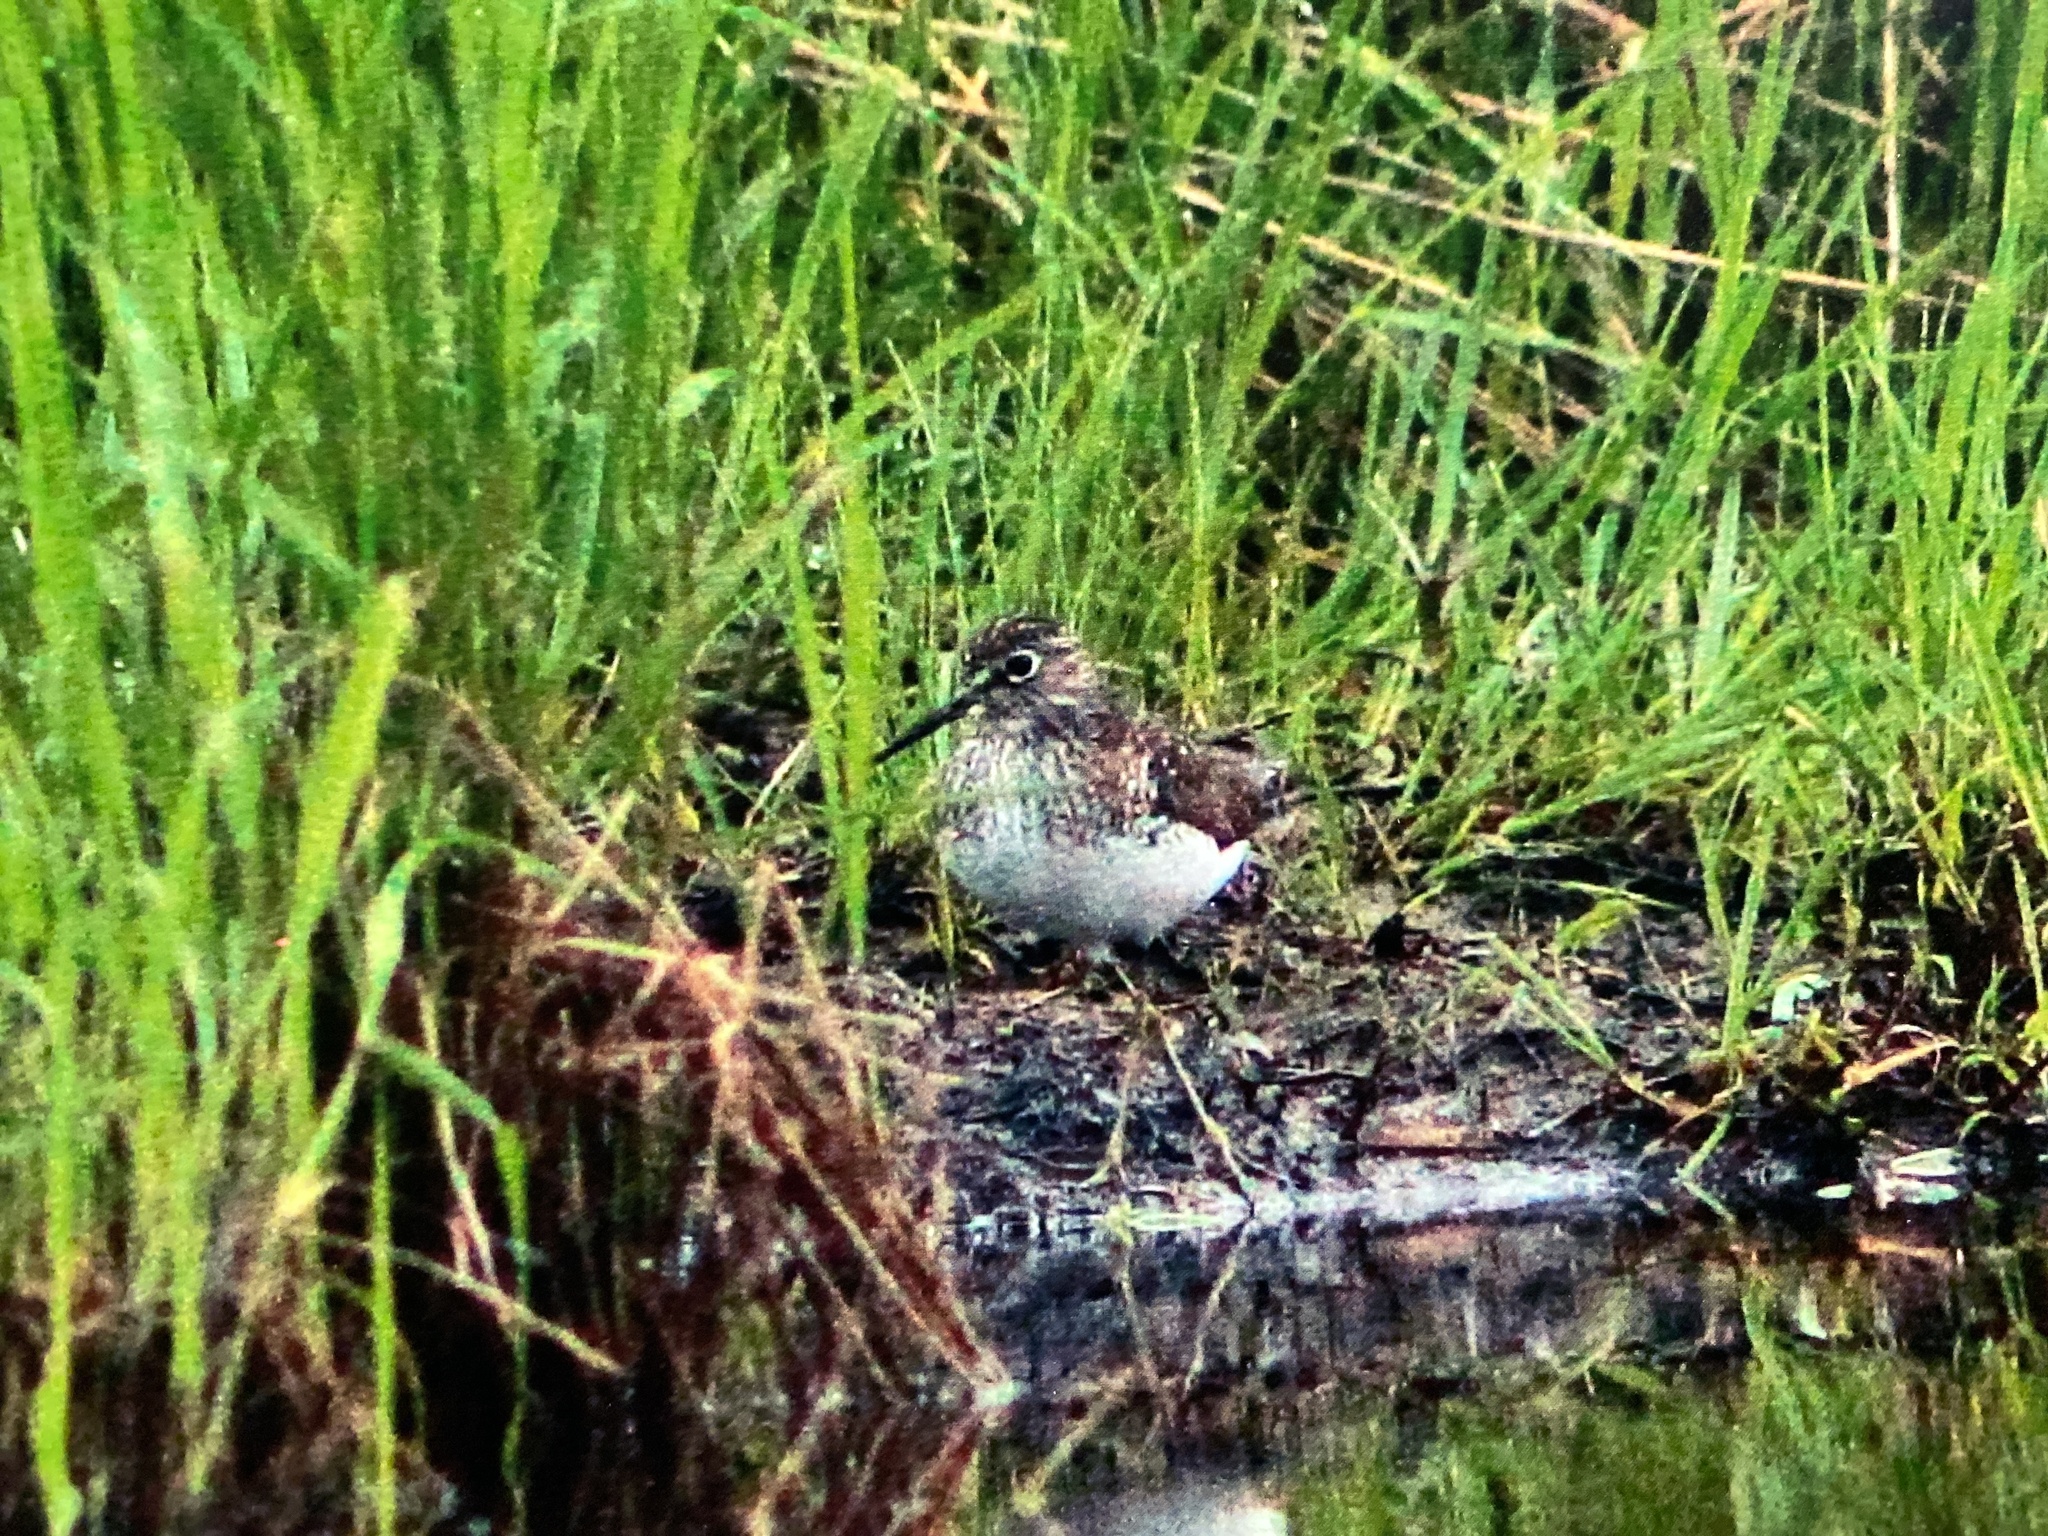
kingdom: Animalia
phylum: Chordata
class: Aves
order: Charadriiformes
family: Scolopacidae
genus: Tringa
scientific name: Tringa solitaria
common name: Solitary sandpiper
